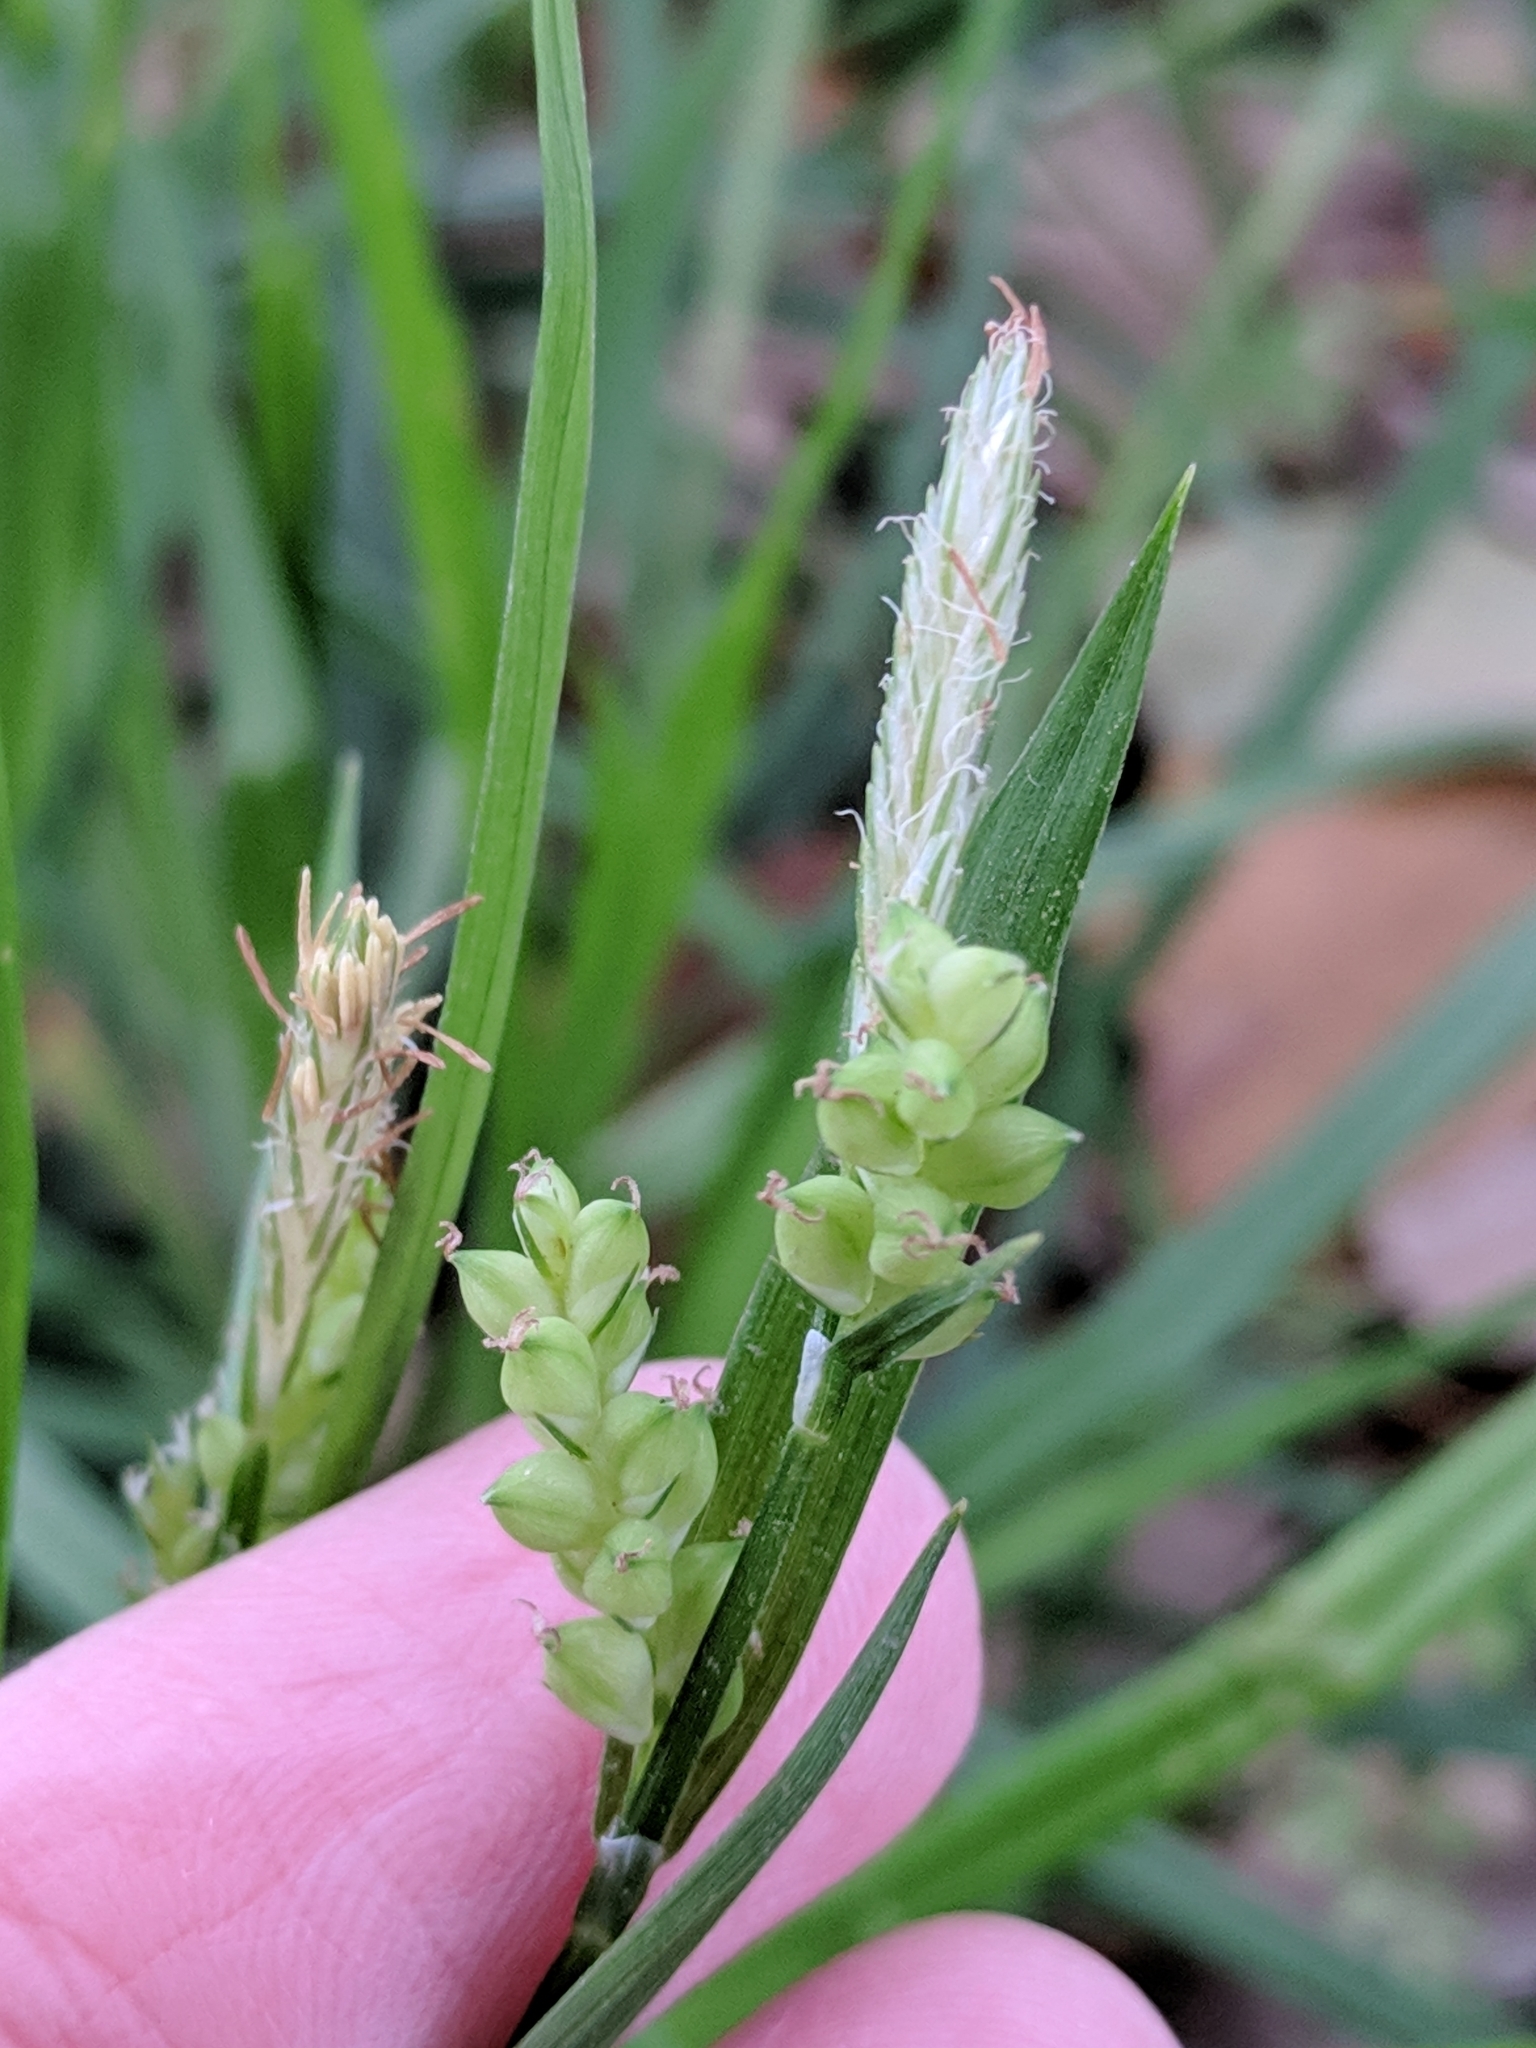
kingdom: Plantae
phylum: Tracheophyta
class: Liliopsida
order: Poales
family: Cyperaceae
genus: Carex
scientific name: Carex blanda
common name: Bland sedge
